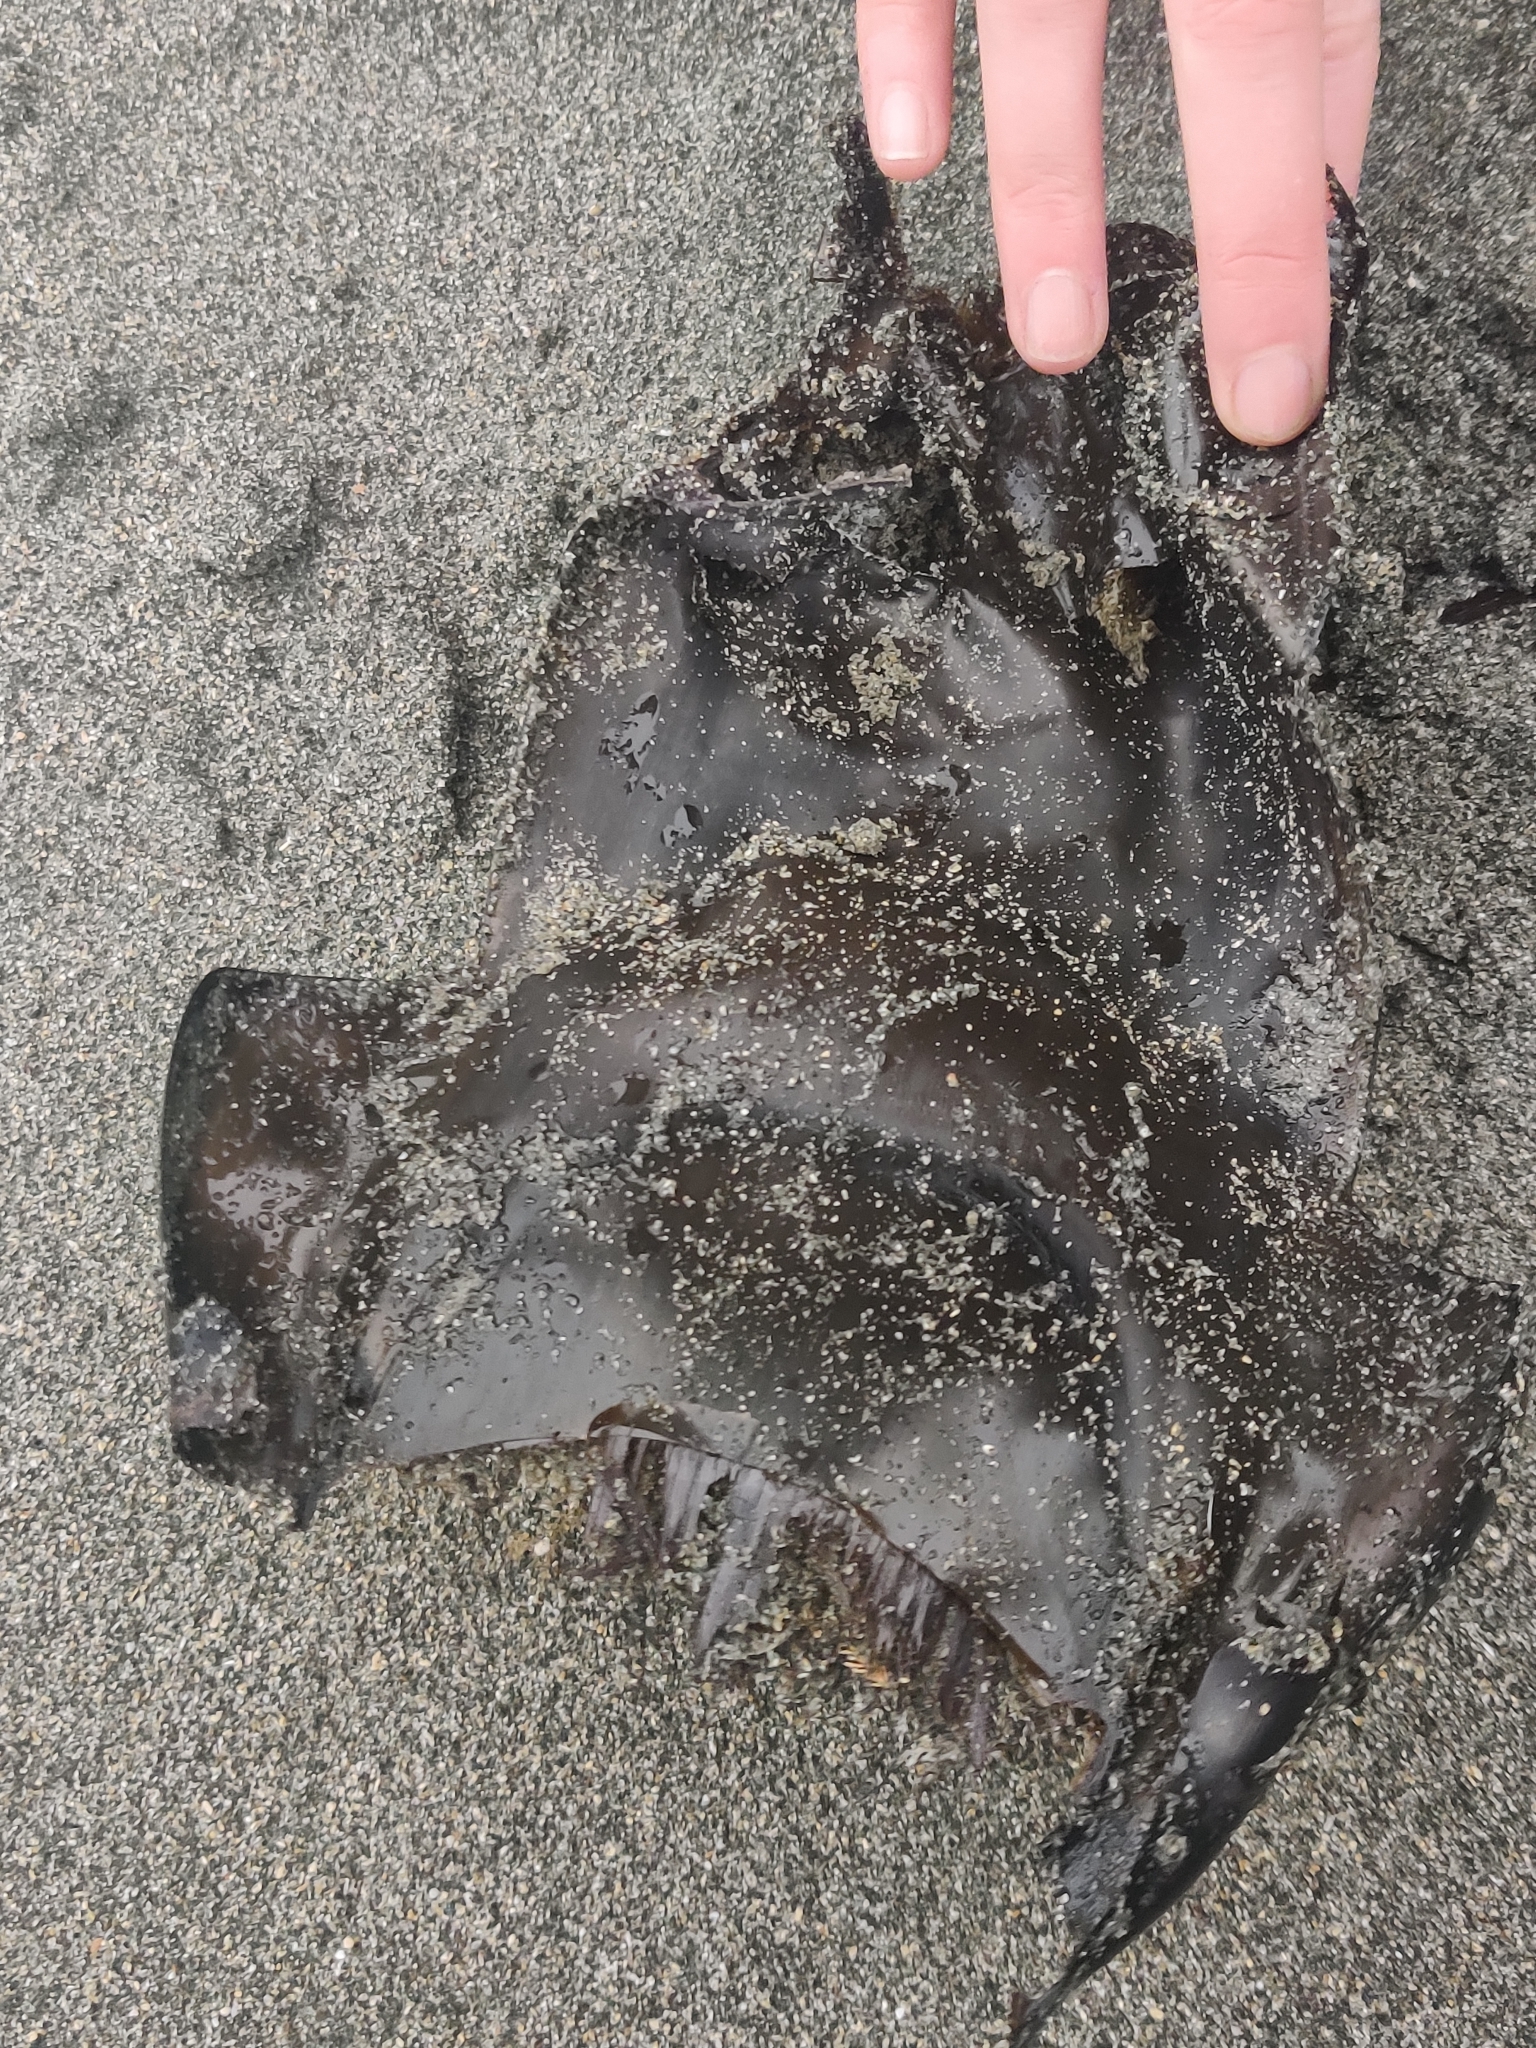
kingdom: Animalia
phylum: Chordata
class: Elasmobranchii
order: Rajiformes
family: Rajidae
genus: Beringraja
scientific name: Beringraja binoculata
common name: Big skate
